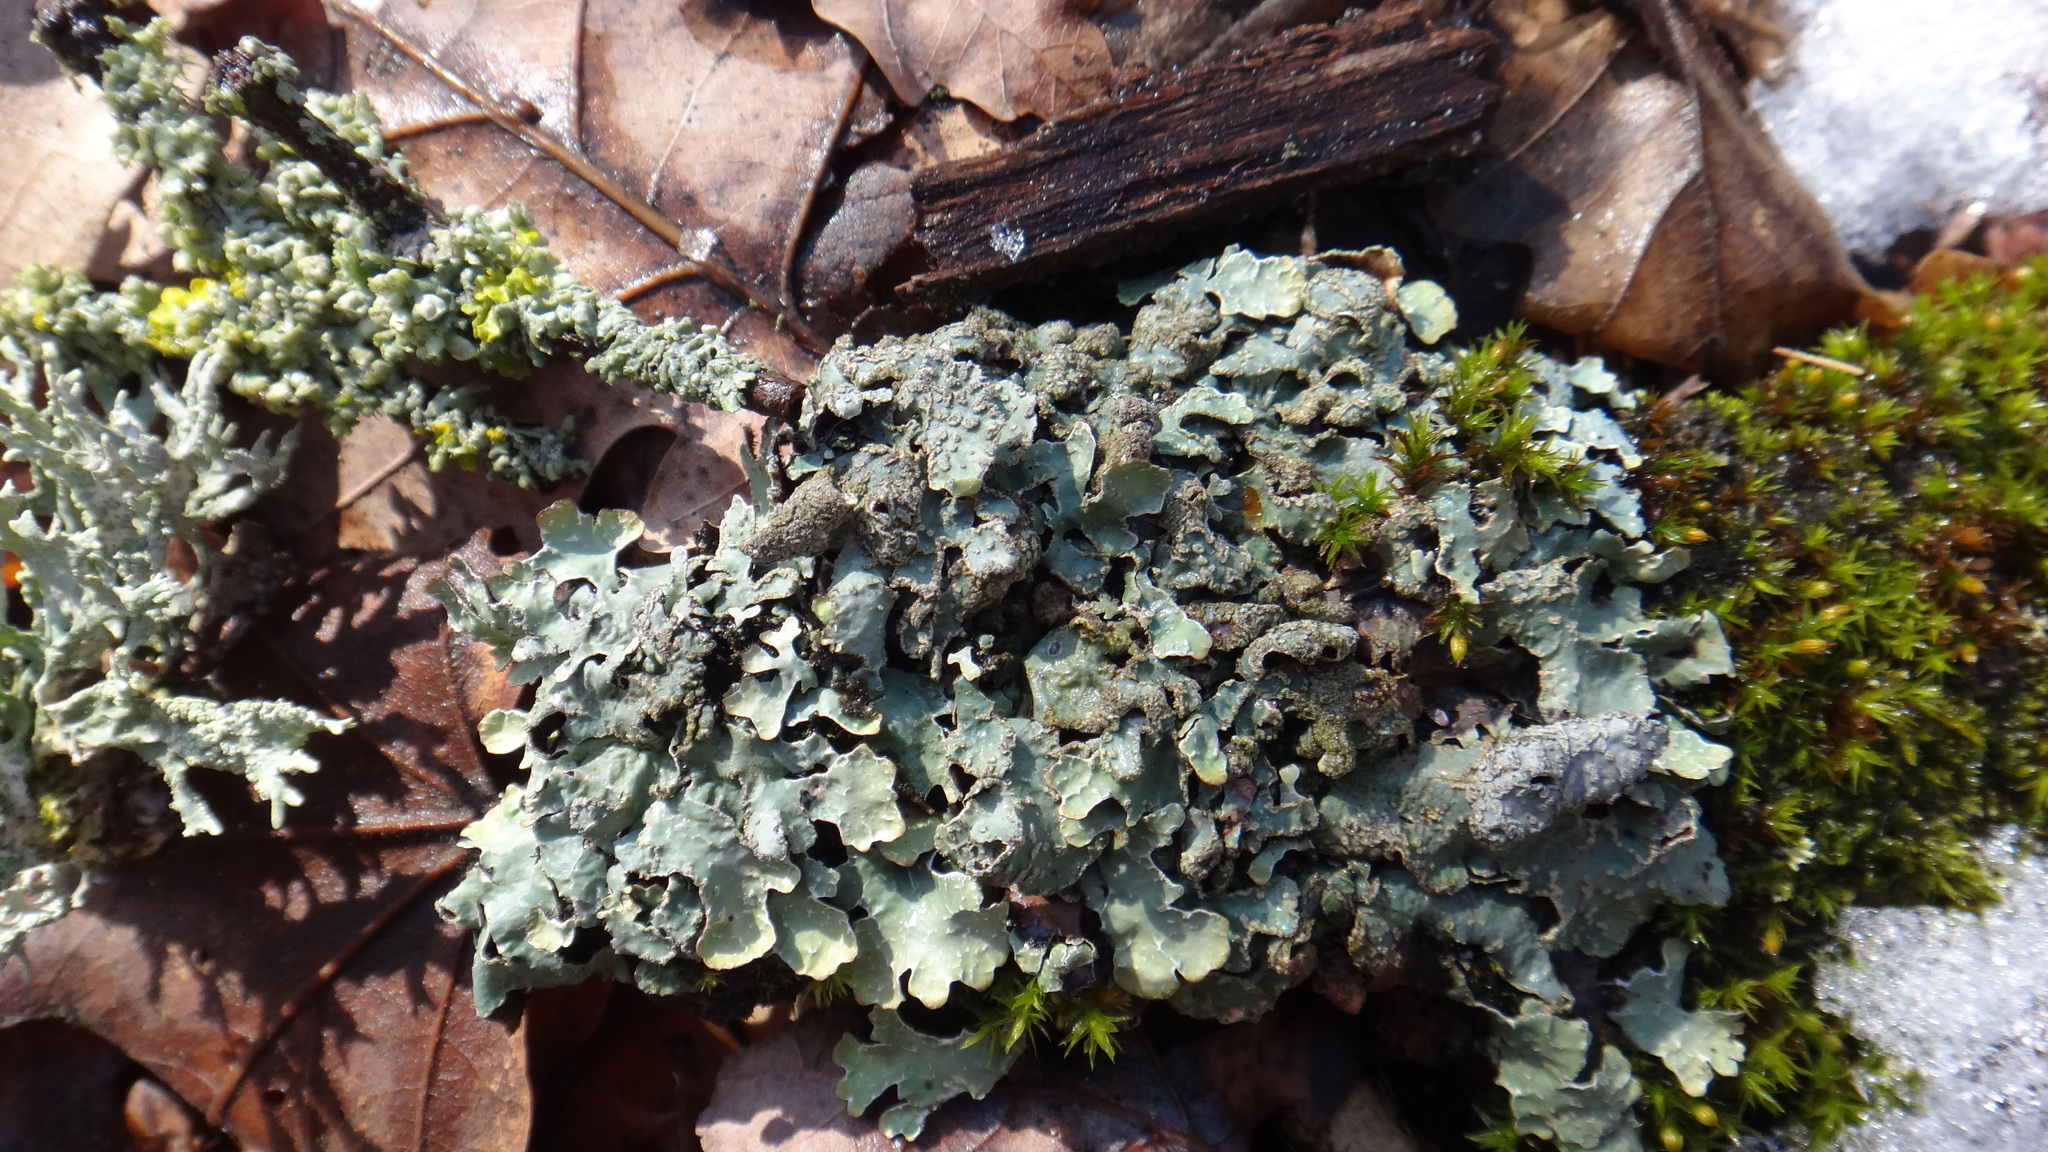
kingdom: Fungi
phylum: Ascomycota
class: Lecanoromycetes
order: Lecanorales
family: Parmeliaceae
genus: Parmelia
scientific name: Parmelia sulcata
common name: Netted shield lichen
